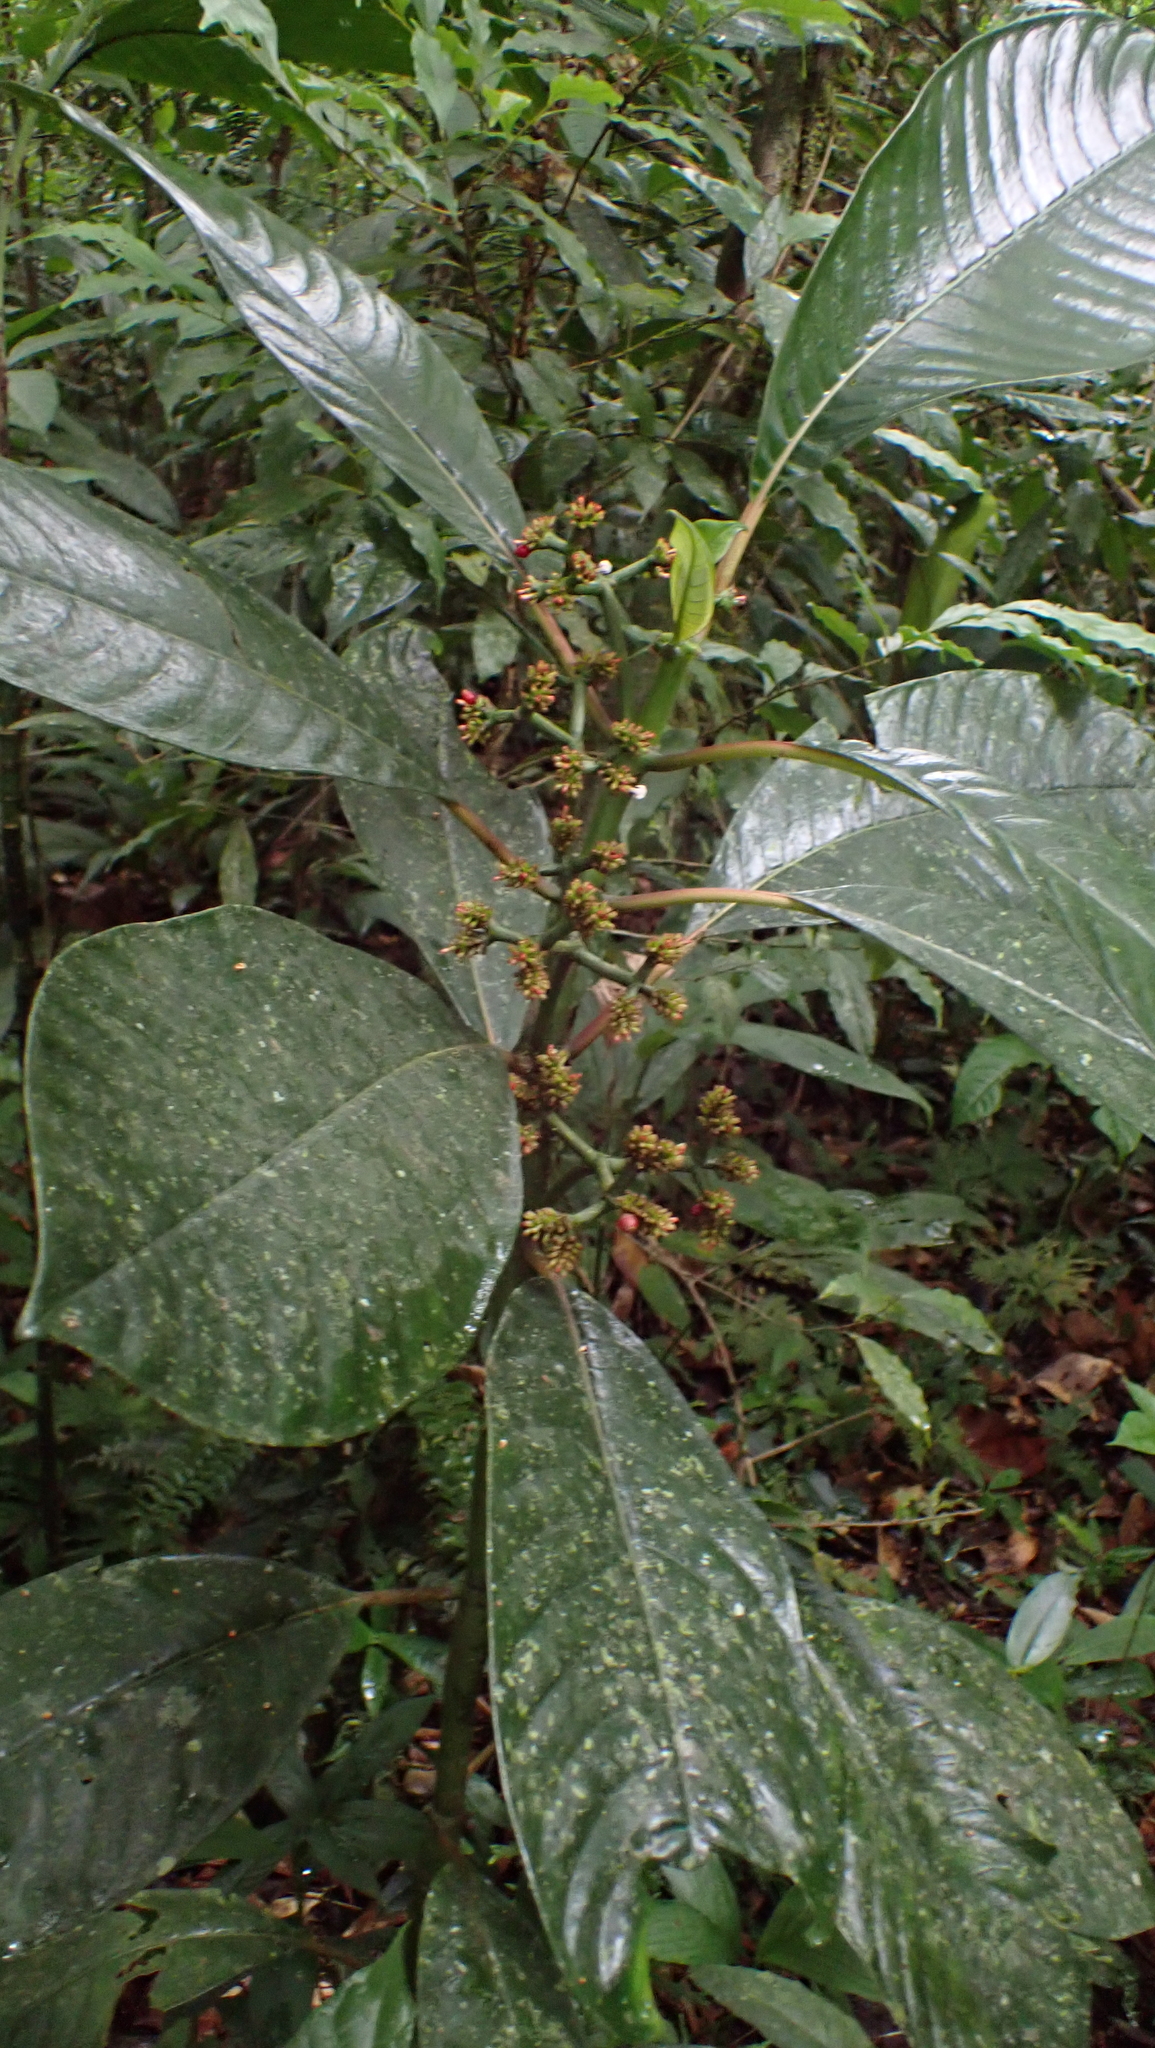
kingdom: Plantae
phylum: Tracheophyta
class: Magnoliopsida
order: Gentianales
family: Rubiaceae
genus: Notopleura
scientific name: Notopleura uliginosa
